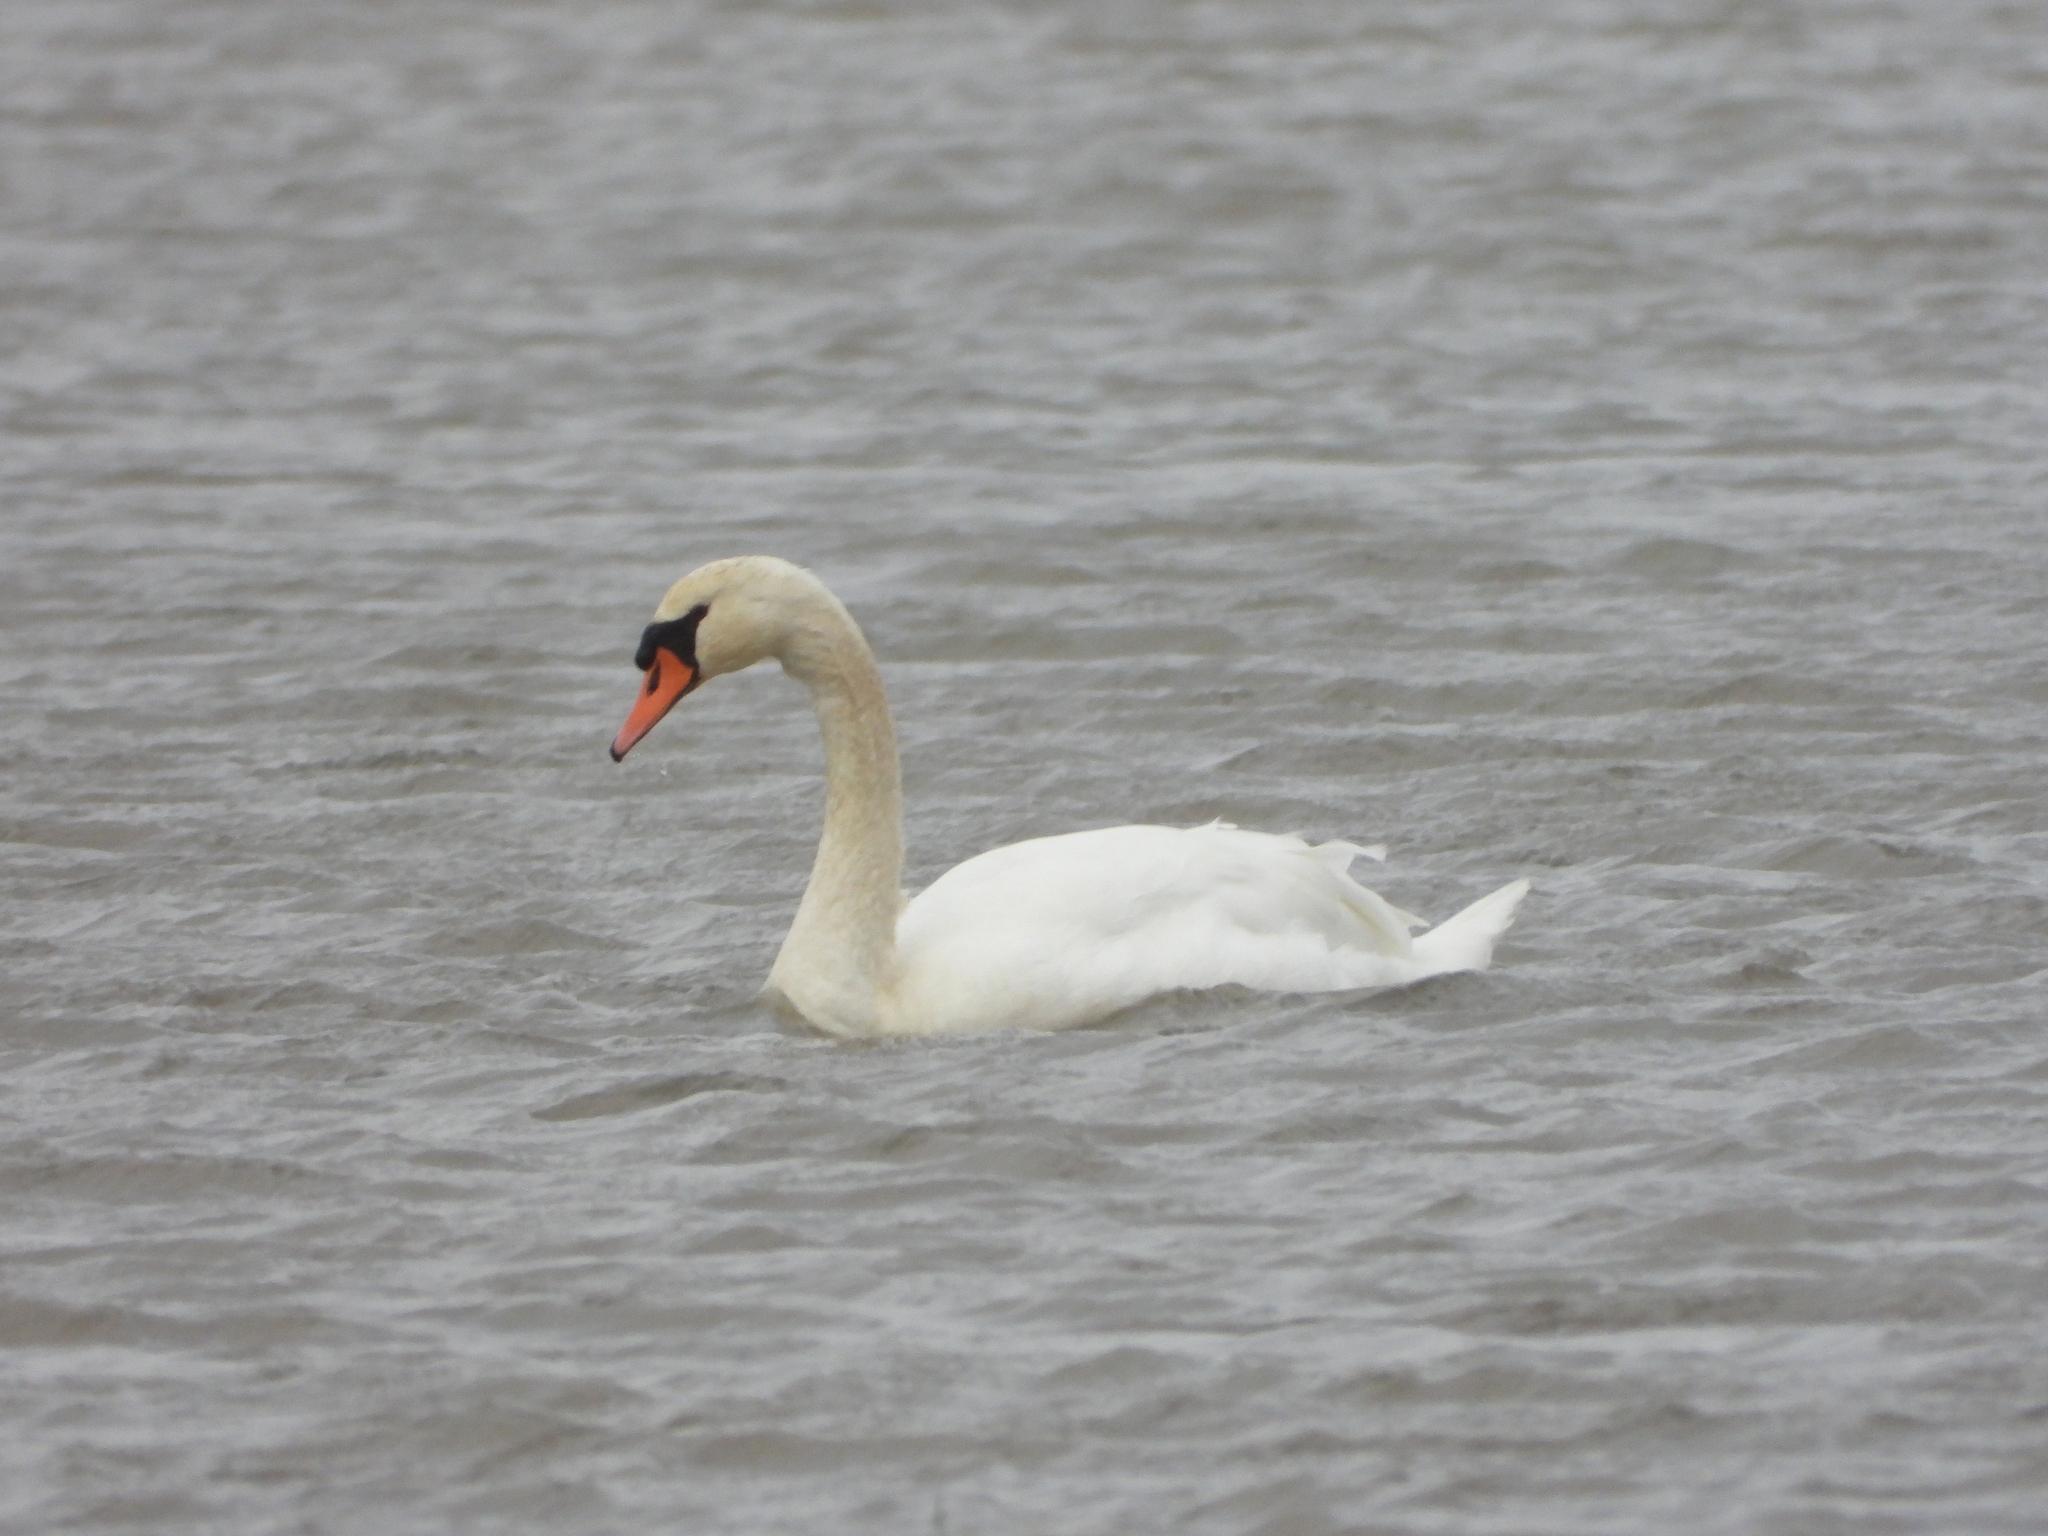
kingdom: Animalia
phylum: Chordata
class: Aves
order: Anseriformes
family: Anatidae
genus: Cygnus
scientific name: Cygnus olor
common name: Mute swan
